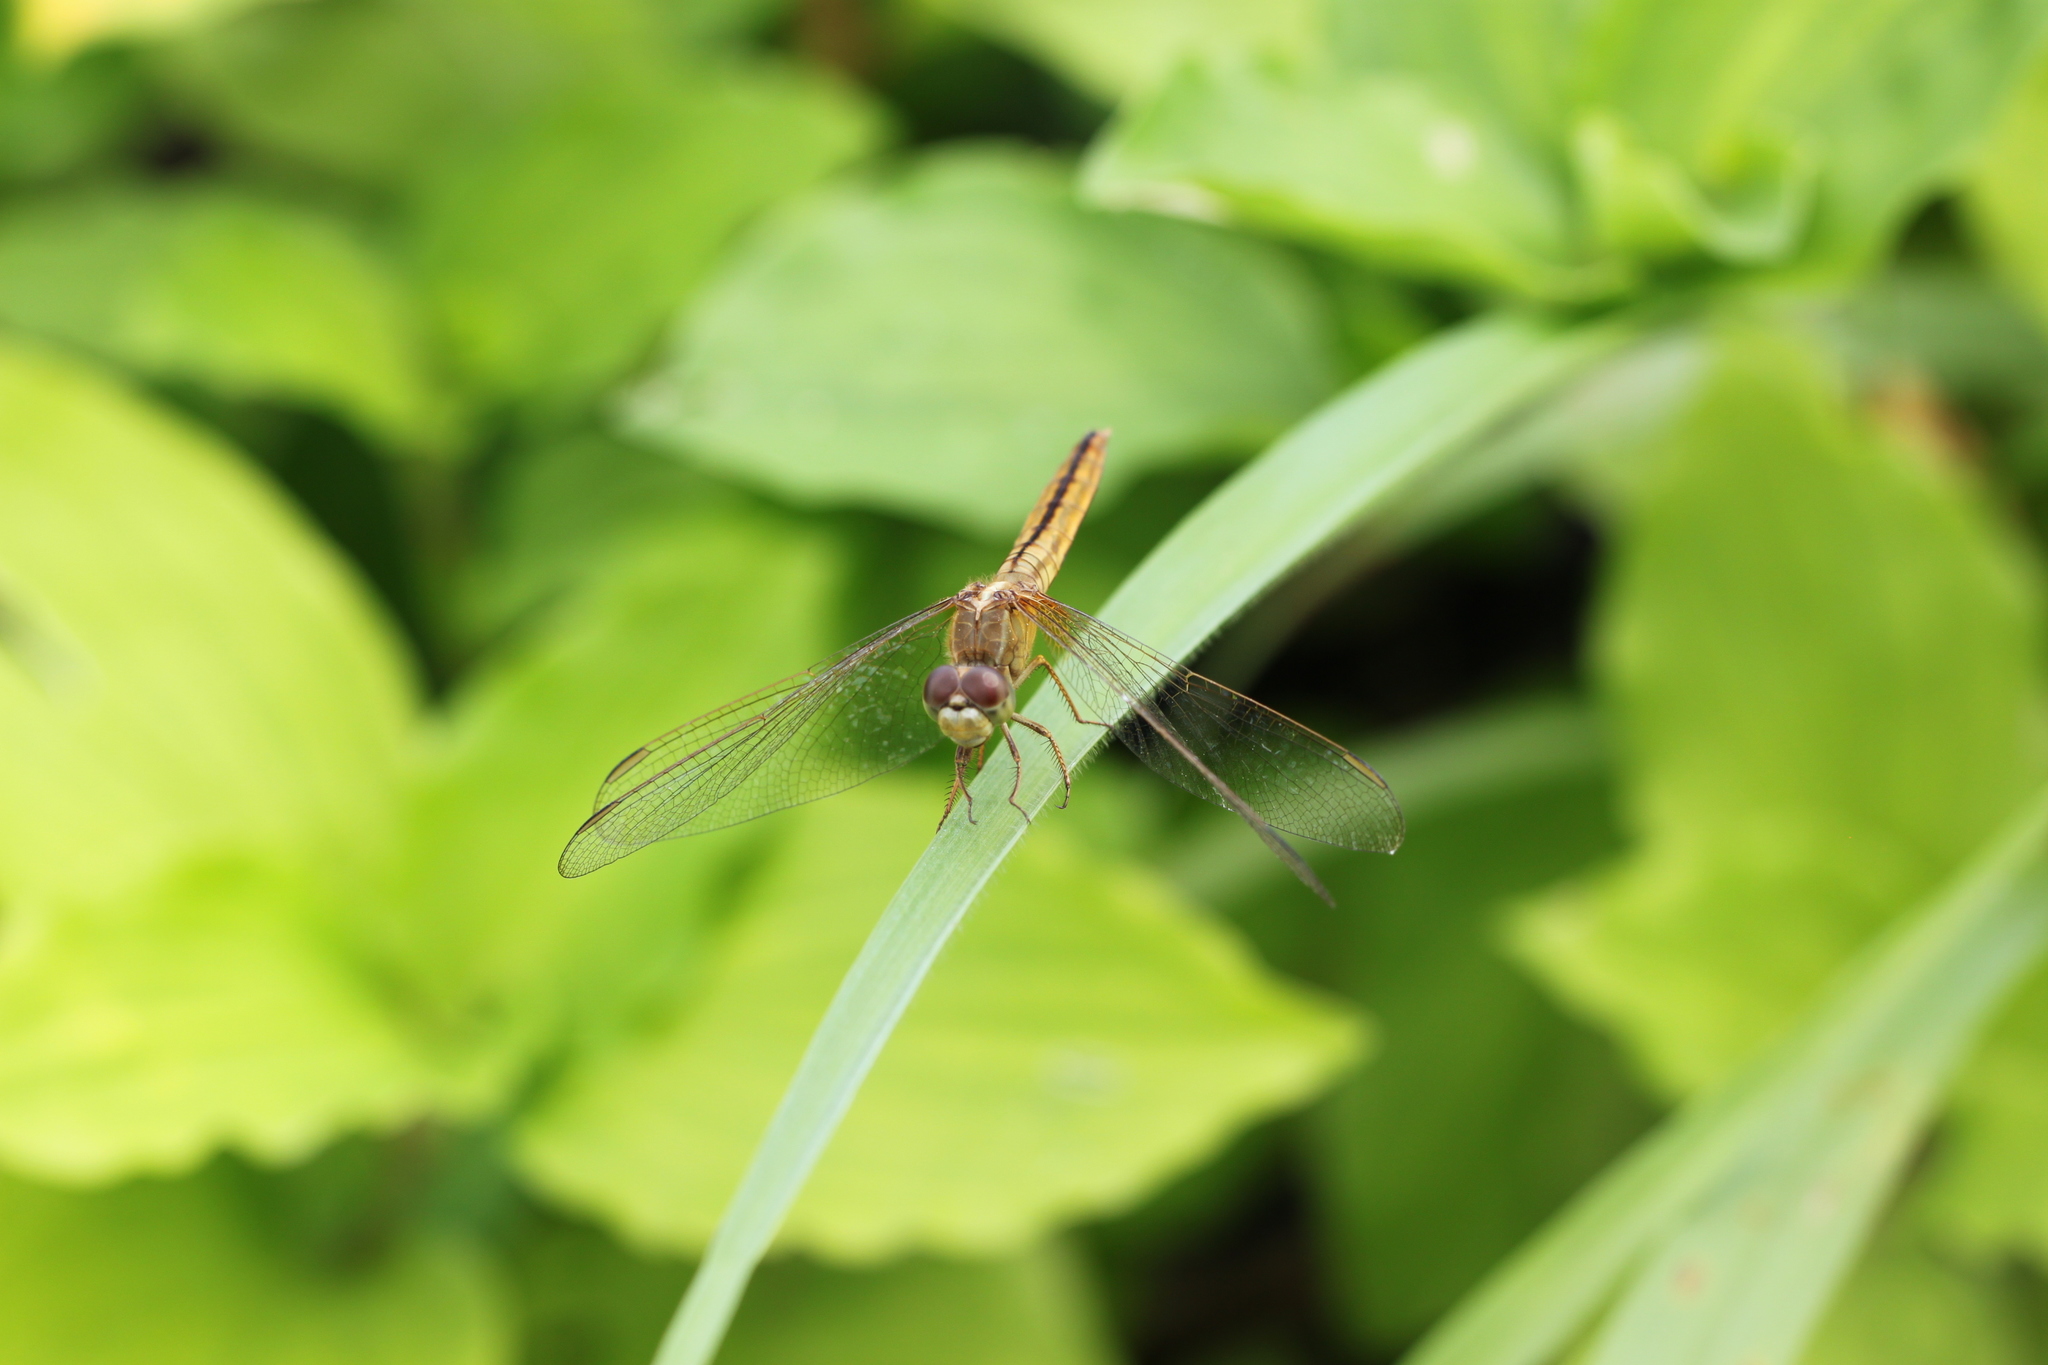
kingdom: Animalia
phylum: Arthropoda
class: Insecta
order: Odonata
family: Libellulidae
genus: Crocothemis
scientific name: Crocothemis servilia
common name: Scarlet skimmer
